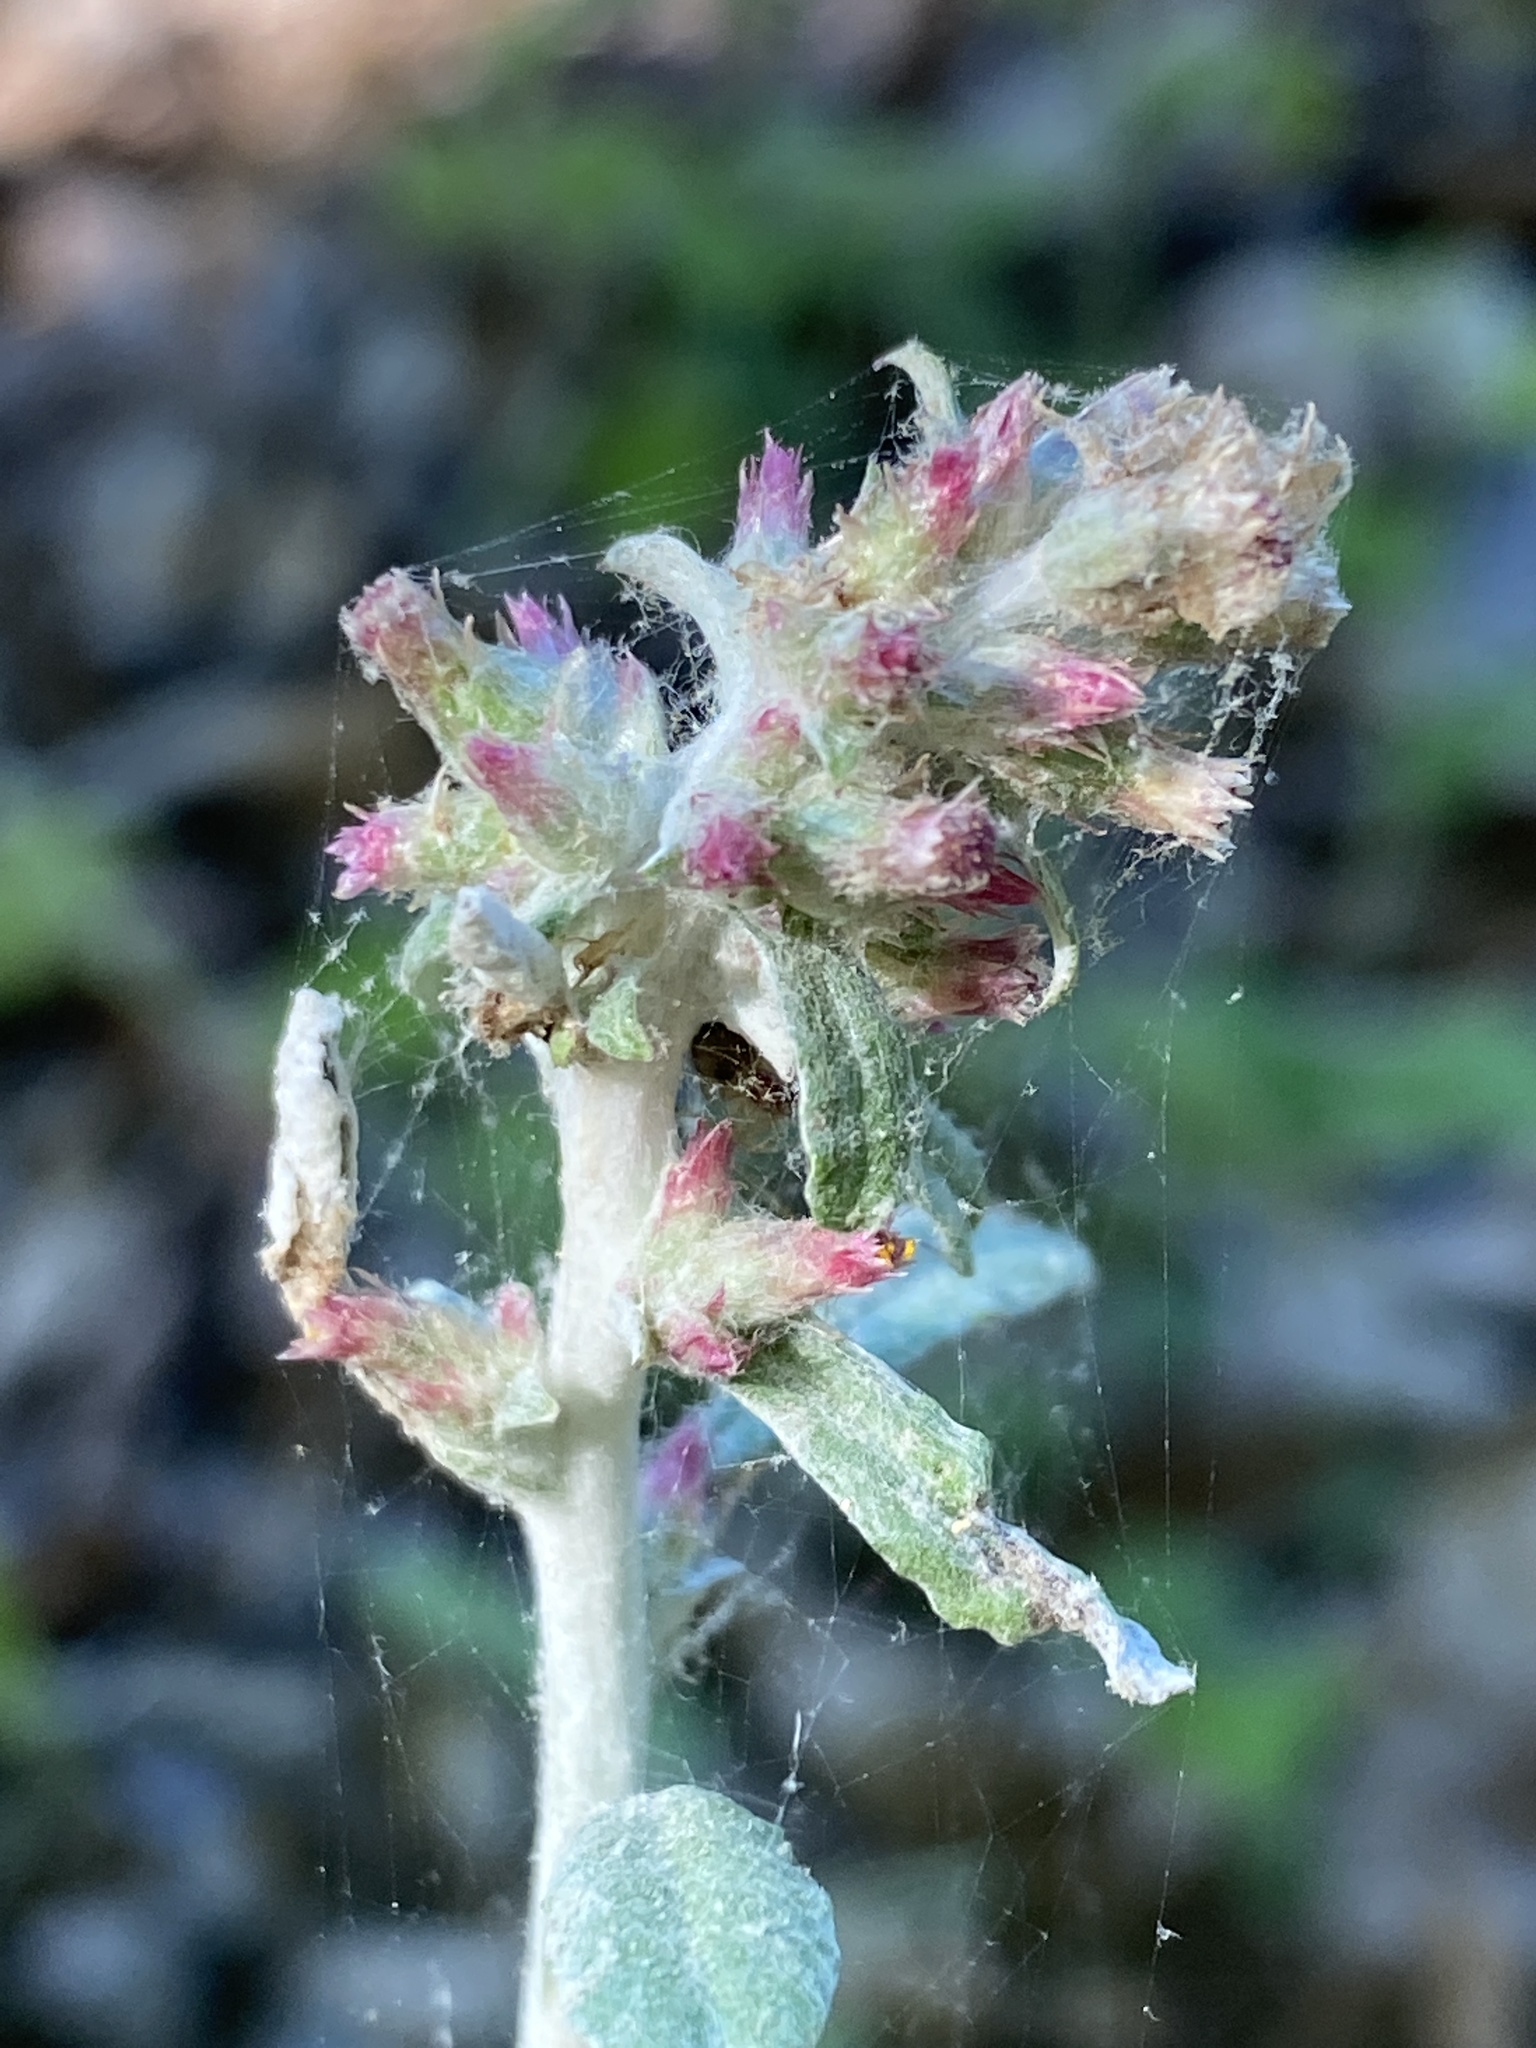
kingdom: Plantae
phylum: Tracheophyta
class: Magnoliopsida
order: Asterales
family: Asteraceae
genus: Gamochaeta
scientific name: Gamochaeta purpurea
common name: Purple cudweed
